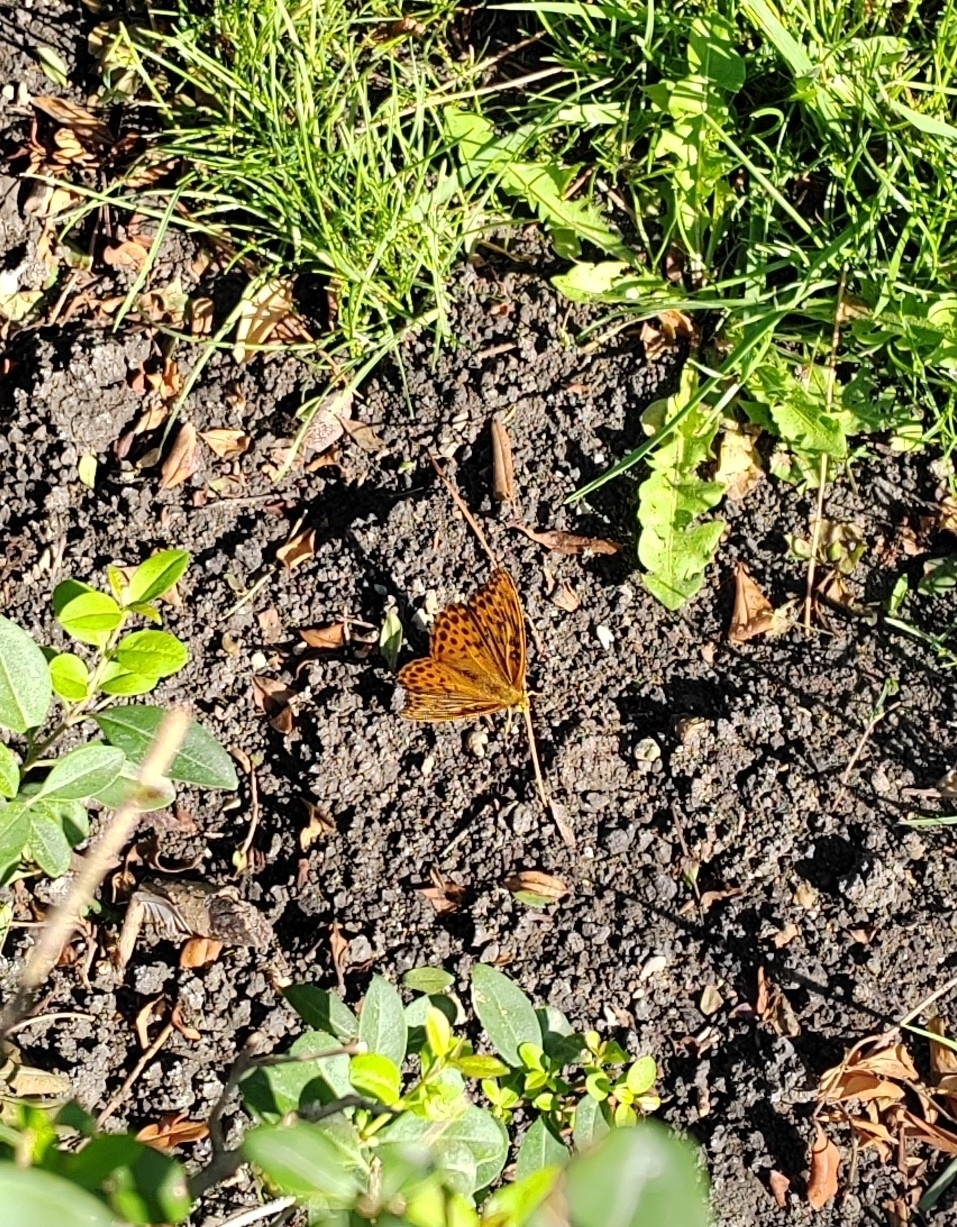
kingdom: Animalia
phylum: Arthropoda
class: Insecta
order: Lepidoptera
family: Nymphalidae
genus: Argynnis
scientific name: Argynnis paphia
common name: Silver-washed fritillary
